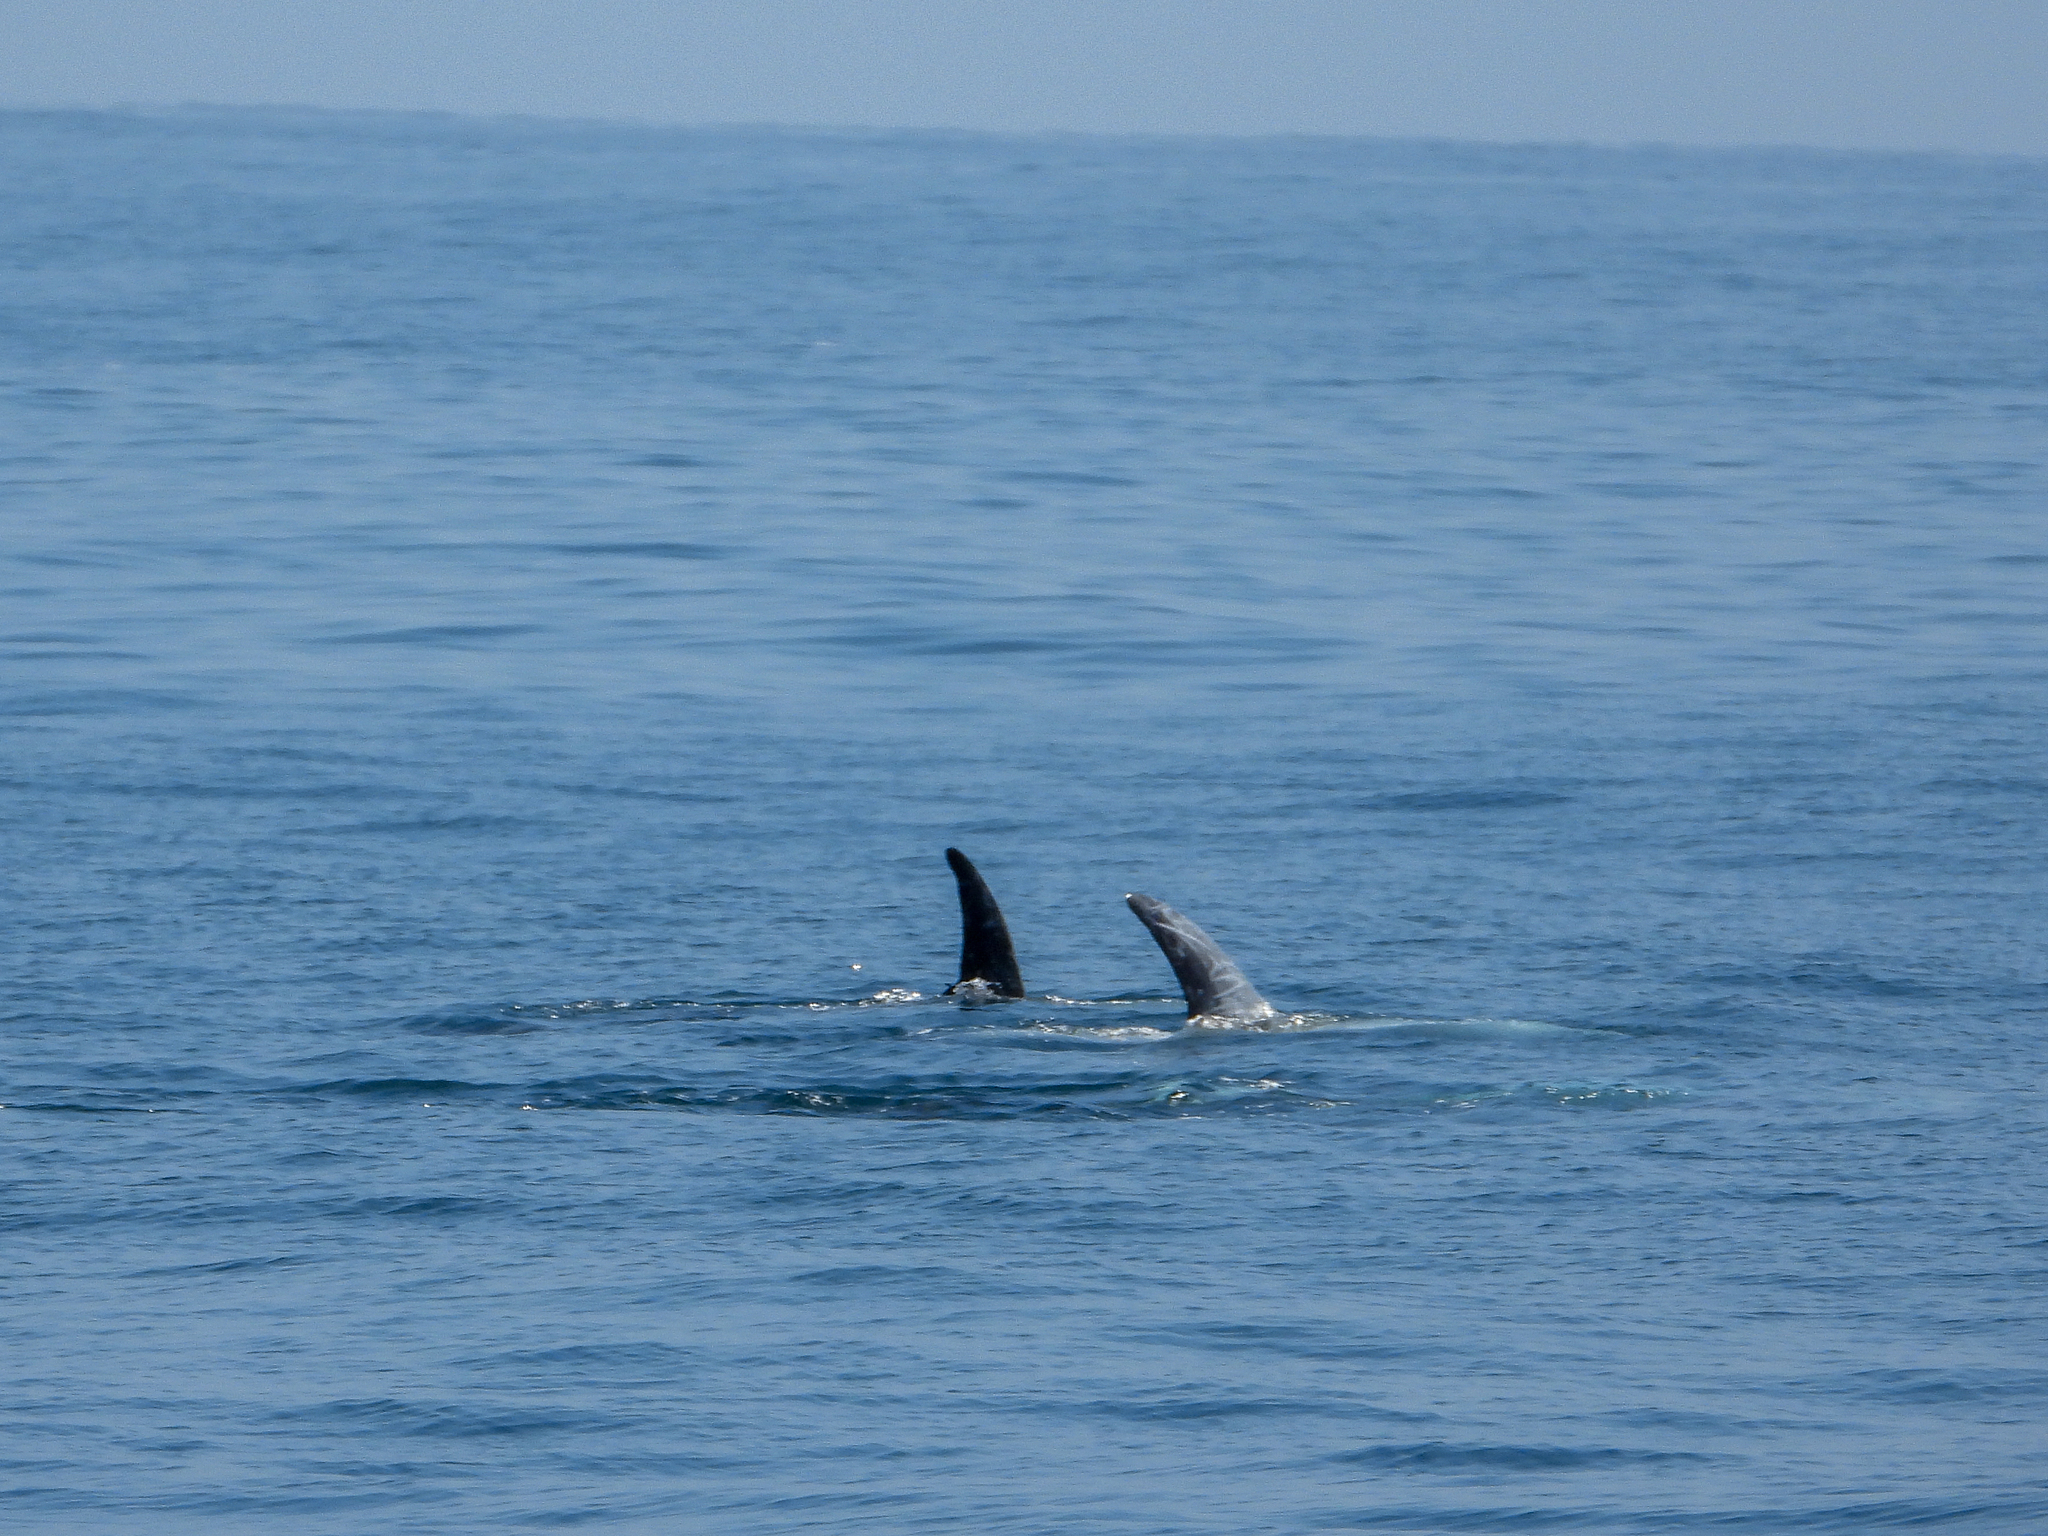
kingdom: Animalia
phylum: Chordata
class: Mammalia
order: Cetacea
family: Delphinidae
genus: Grampus
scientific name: Grampus griseus
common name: Risso's dolphin
